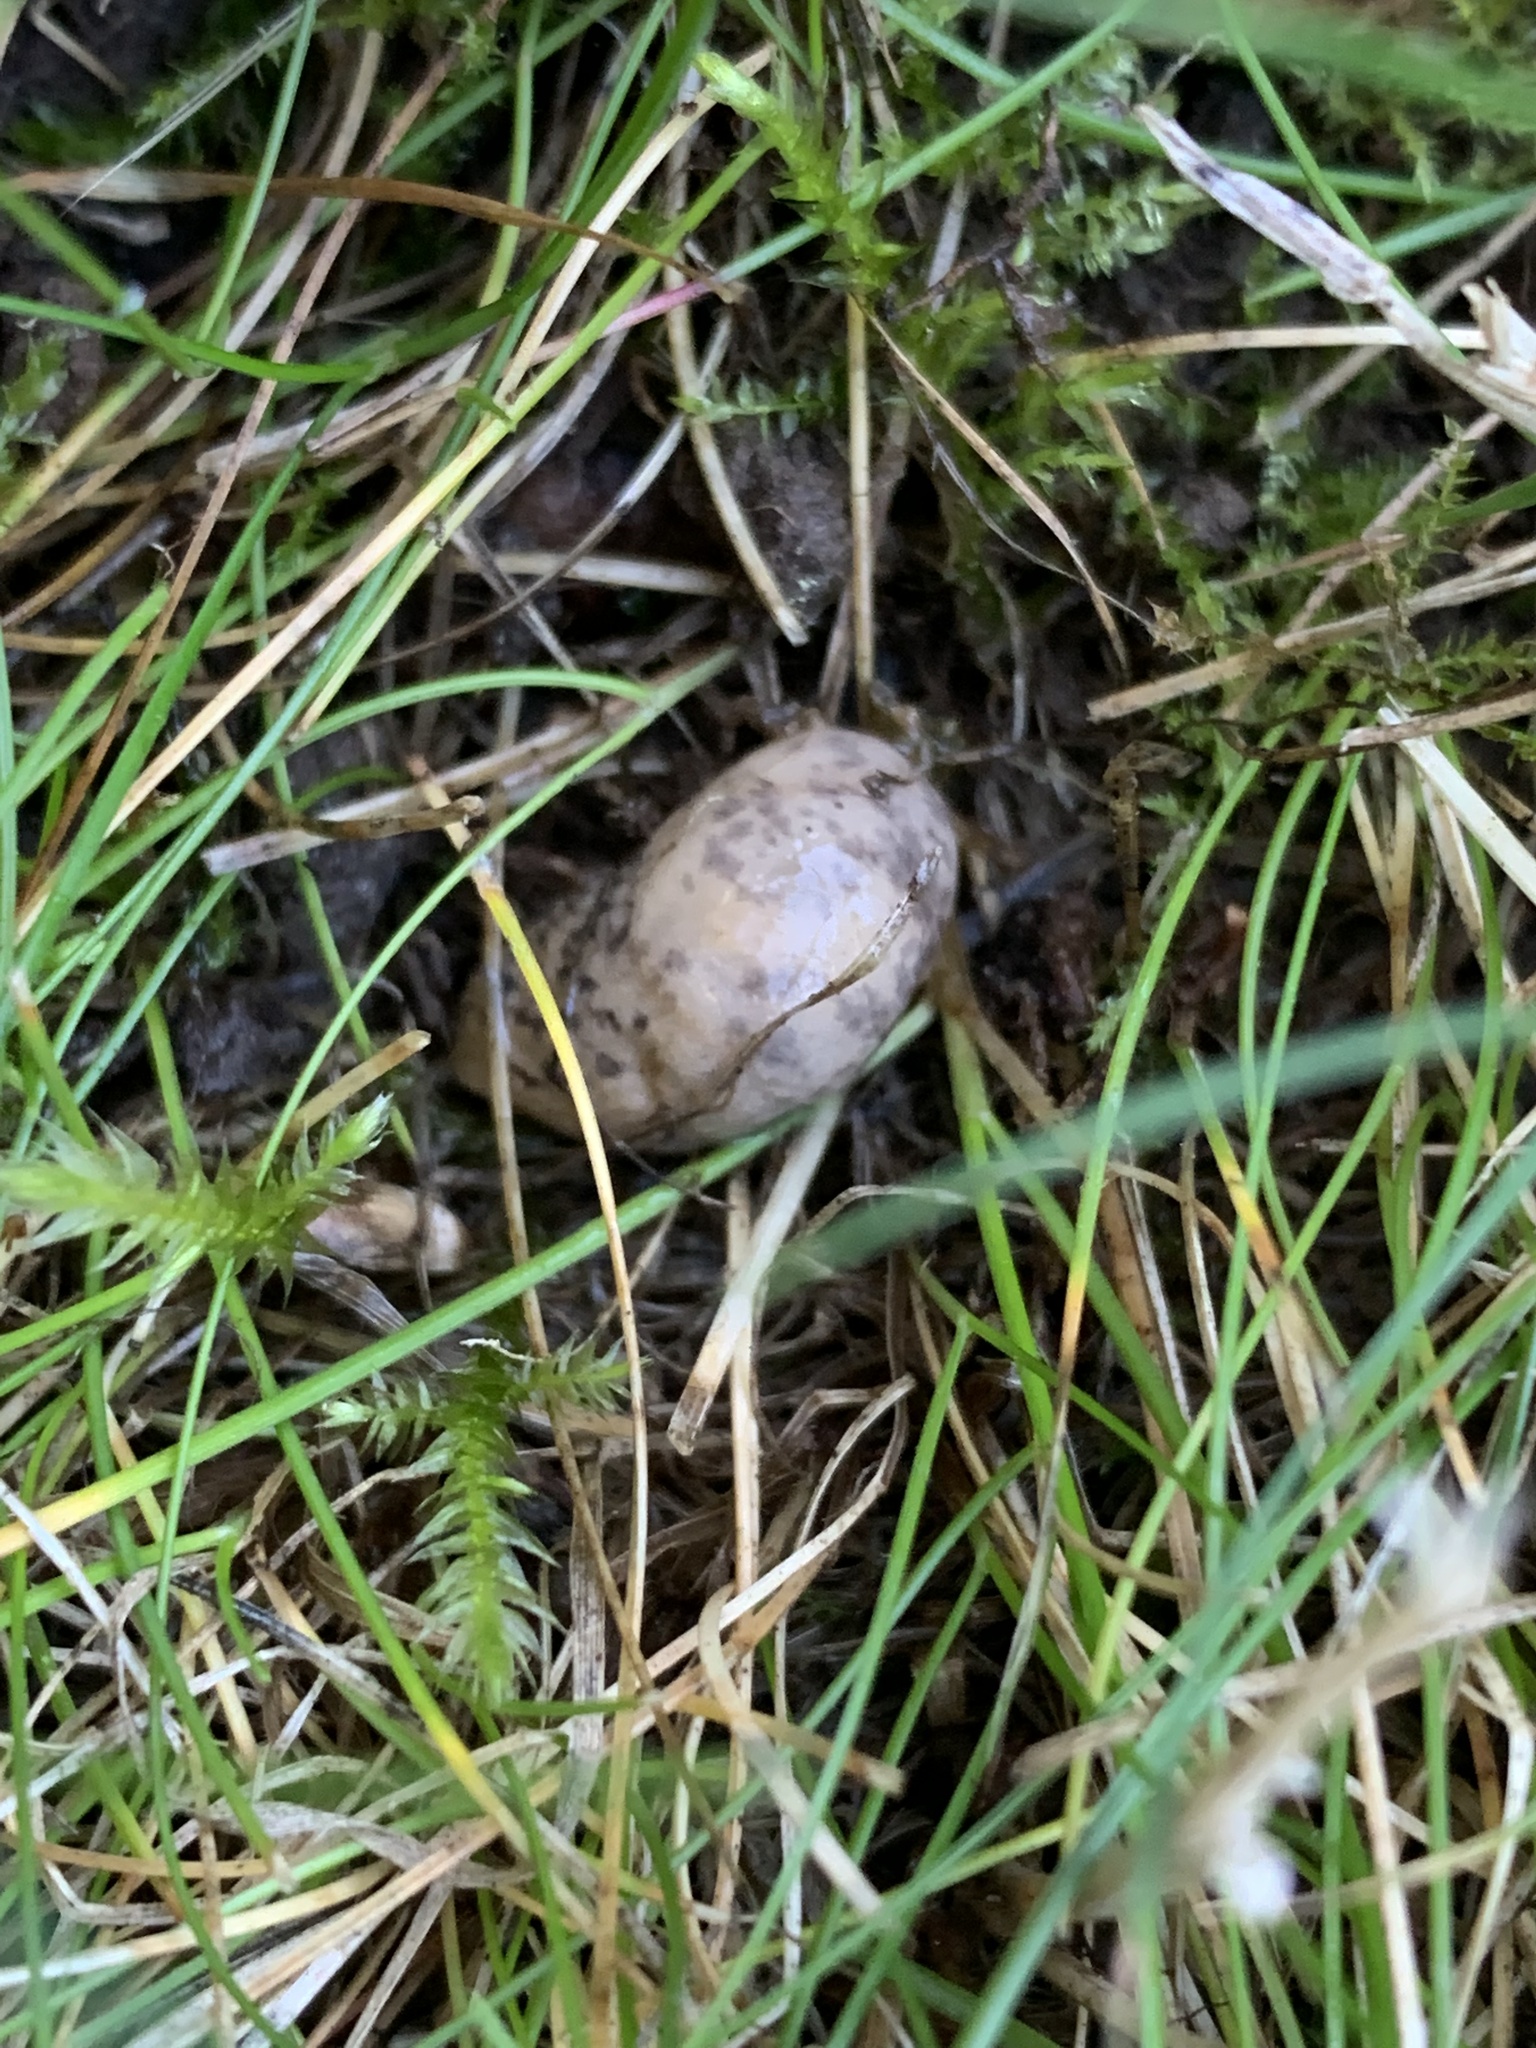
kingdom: Animalia
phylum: Mollusca
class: Gastropoda
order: Stylommatophora
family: Agriolimacidae
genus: Deroceras
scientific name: Deroceras reticulatum
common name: Gray field slug
